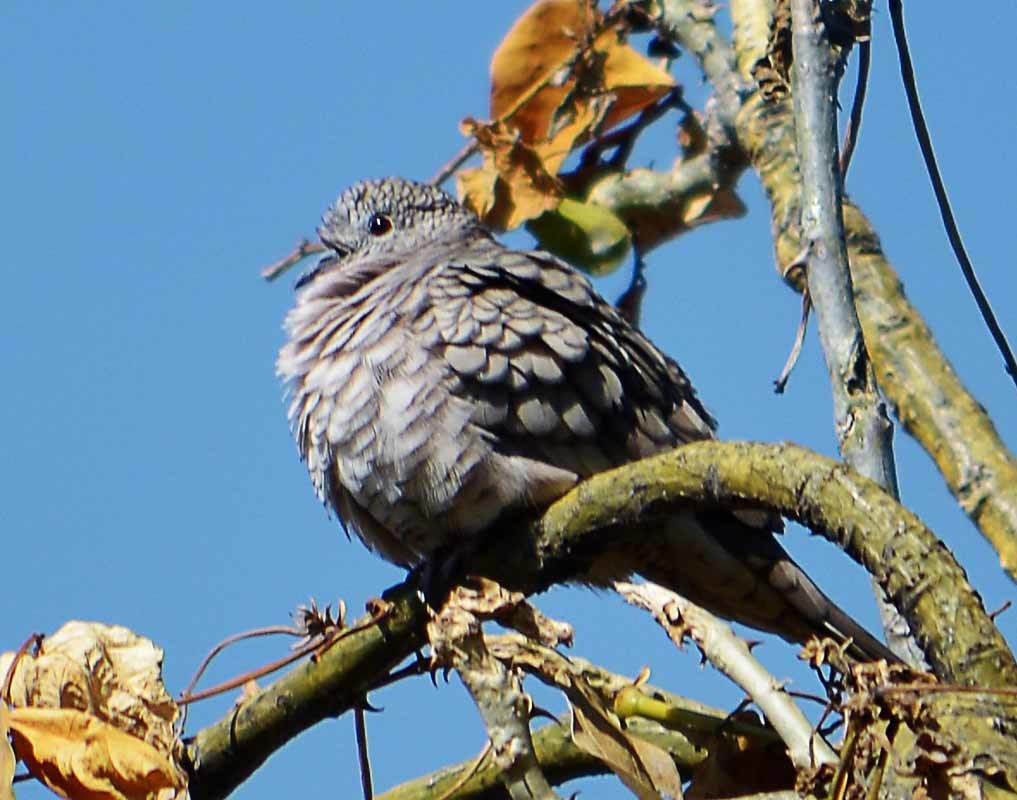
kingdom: Animalia
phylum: Chordata
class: Aves
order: Columbiformes
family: Columbidae
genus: Columbina
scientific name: Columbina inca
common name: Inca dove
